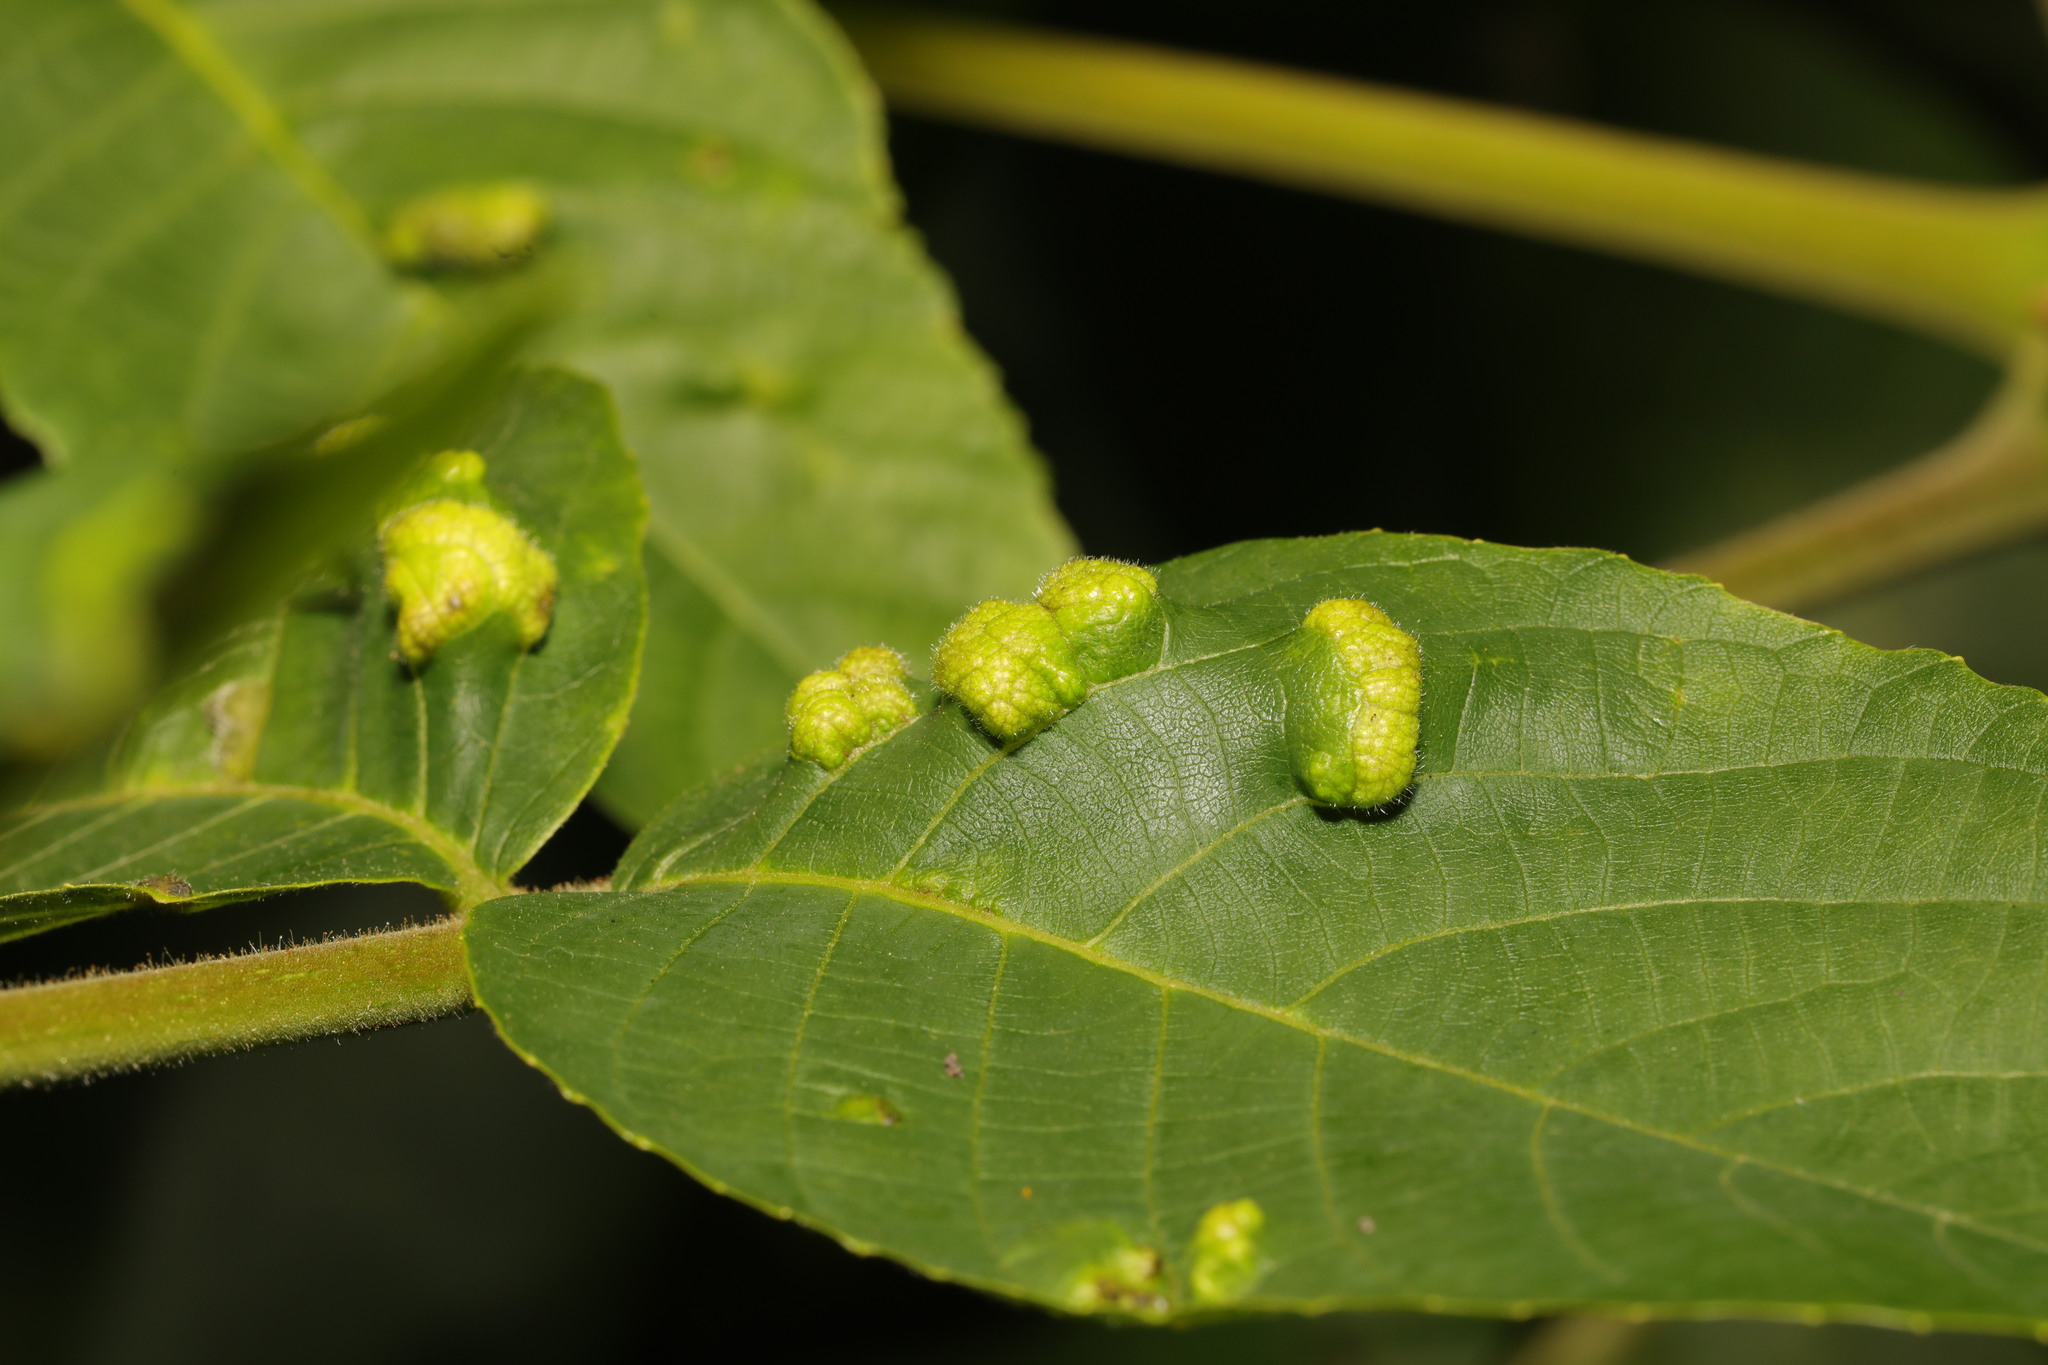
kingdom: Animalia
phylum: Arthropoda
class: Arachnida
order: Trombidiformes
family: Eriophyidae
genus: Aceria
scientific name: Aceria erinea
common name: Persian walnut erineum mite
